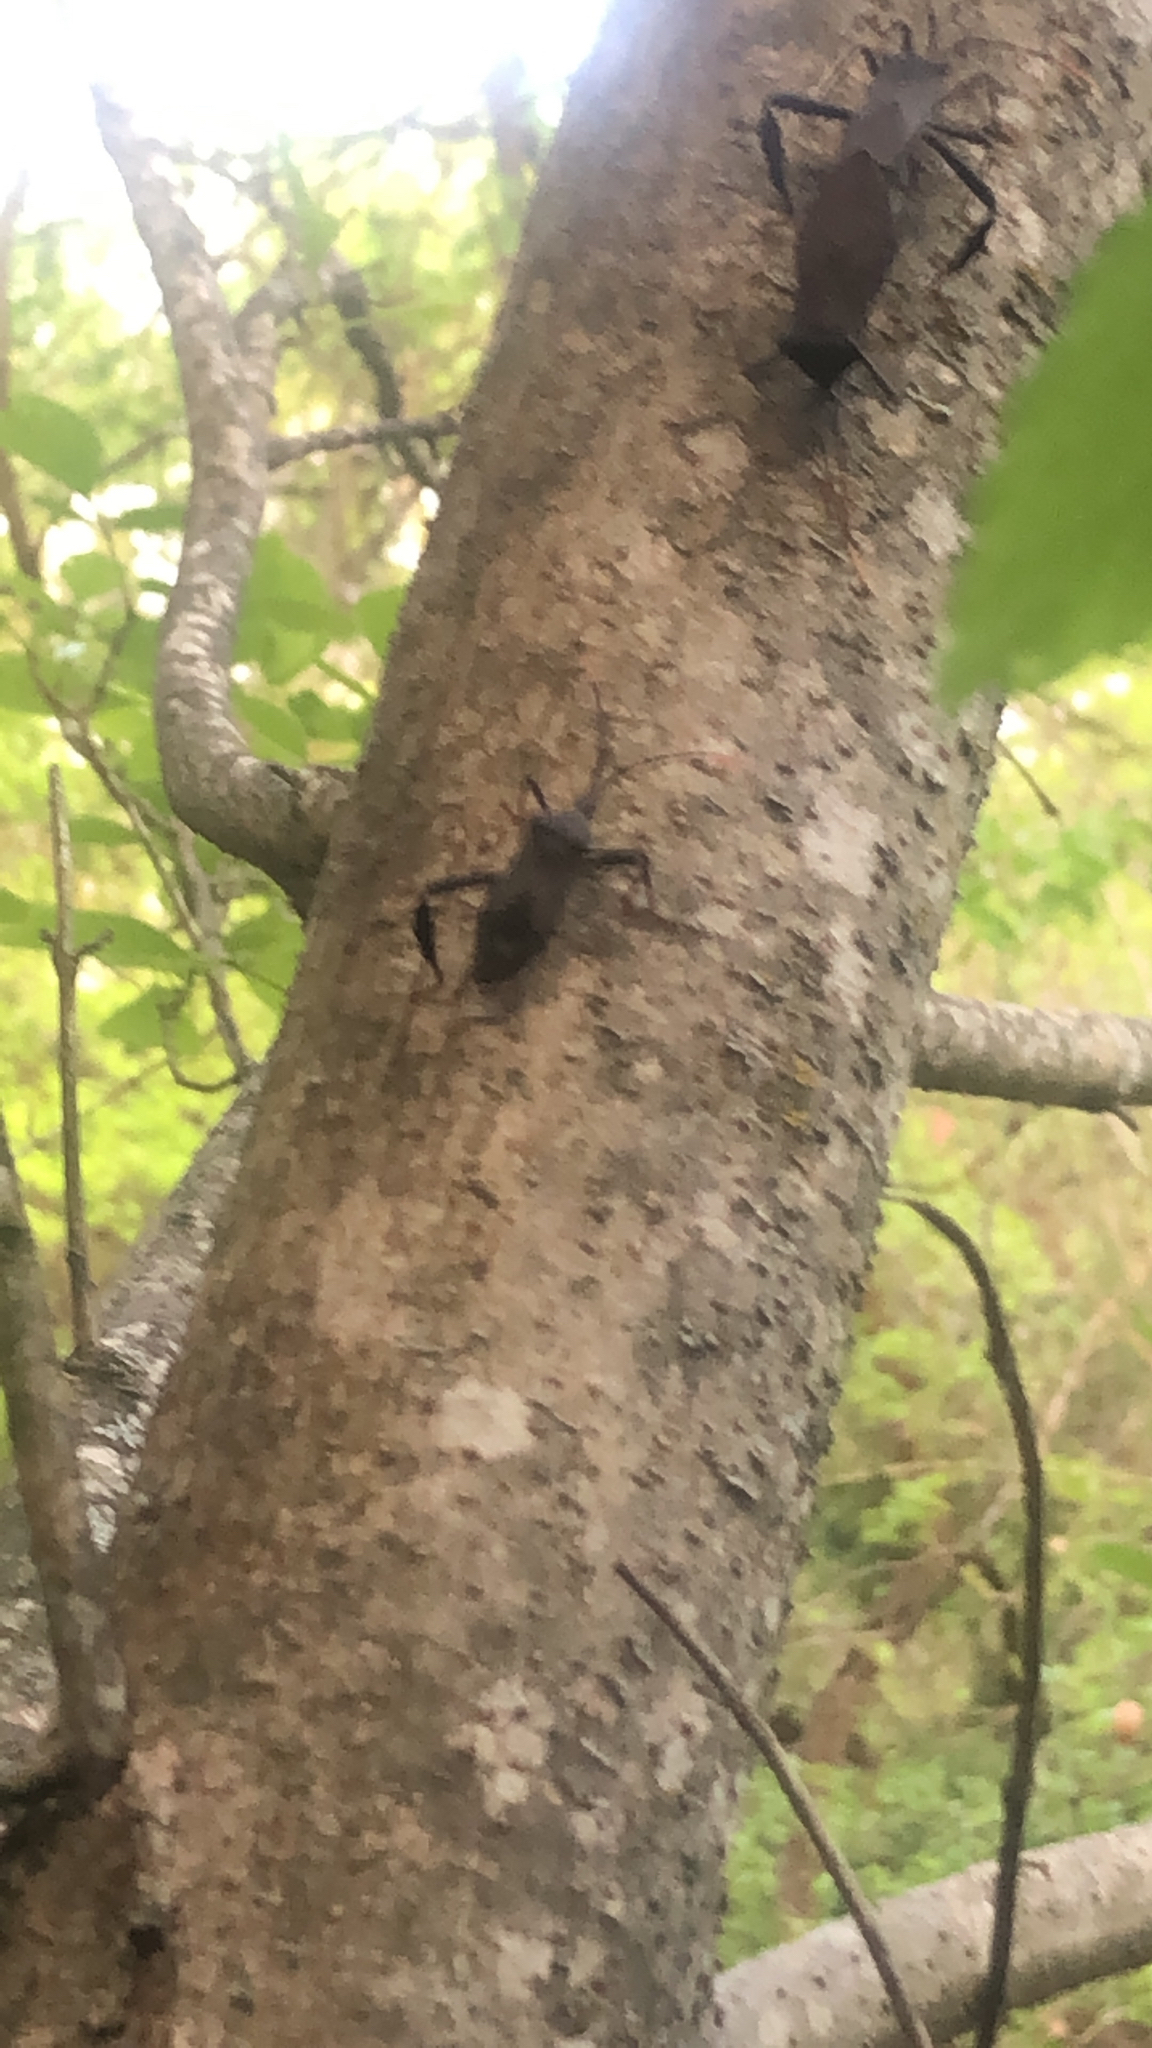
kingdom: Animalia
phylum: Arthropoda
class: Insecta
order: Hemiptera
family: Coreidae
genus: Acanthocephala
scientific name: Acanthocephala terminalis
